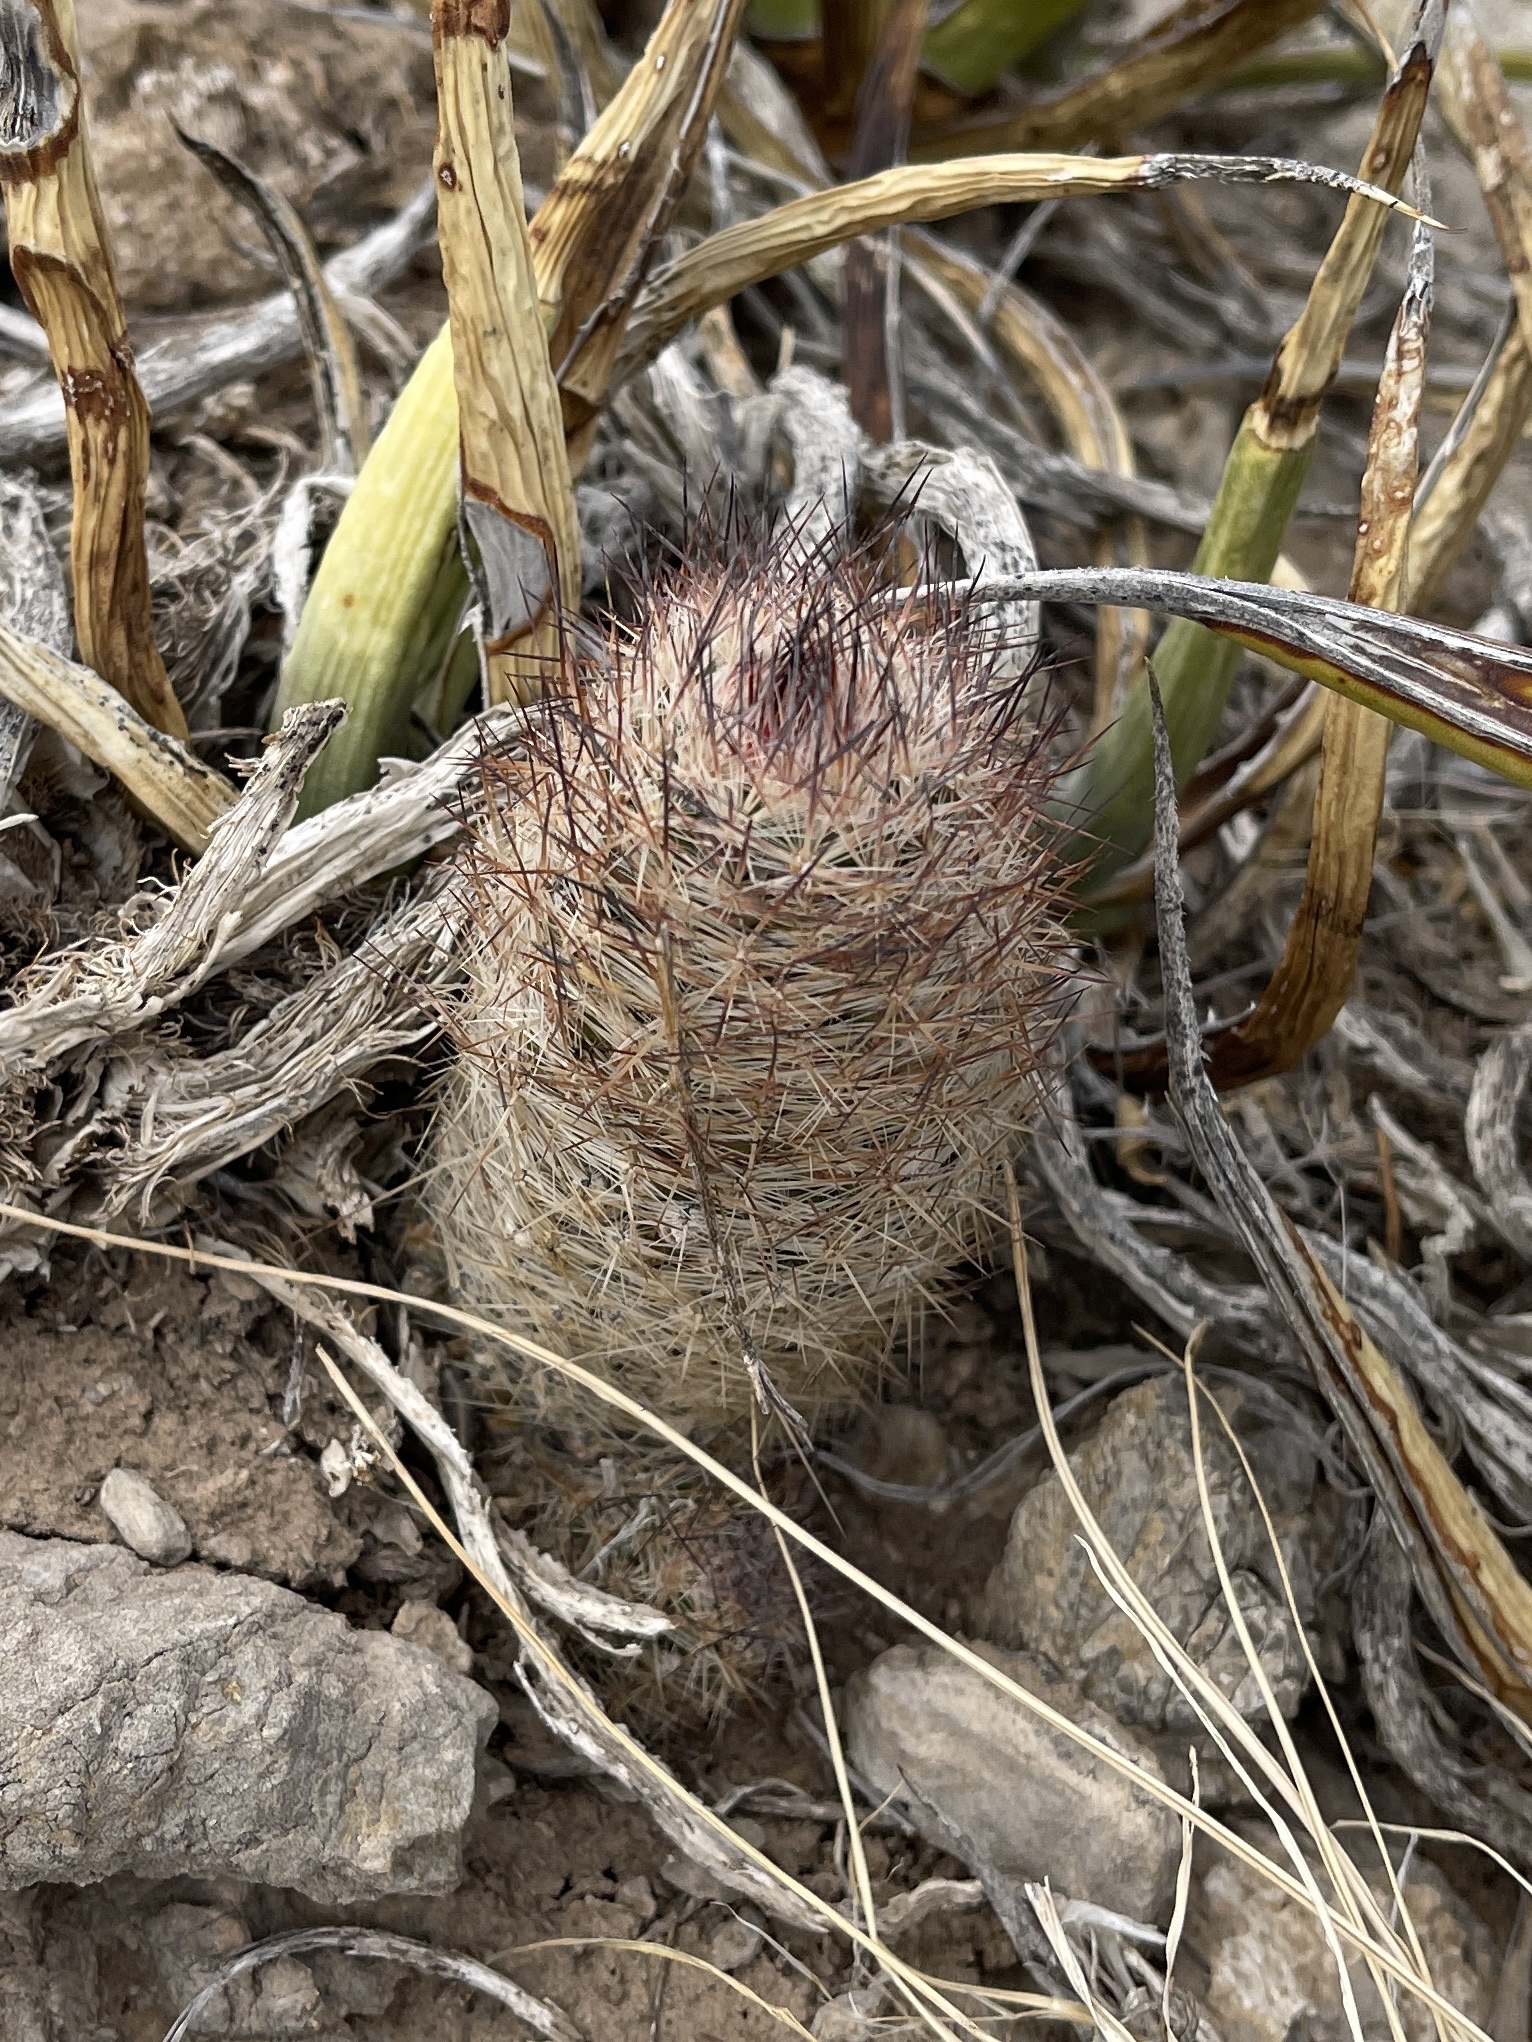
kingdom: Plantae
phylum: Tracheophyta
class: Magnoliopsida
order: Caryophyllales
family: Cactaceae
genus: Pelecyphora
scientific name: Pelecyphora tuberculosa
